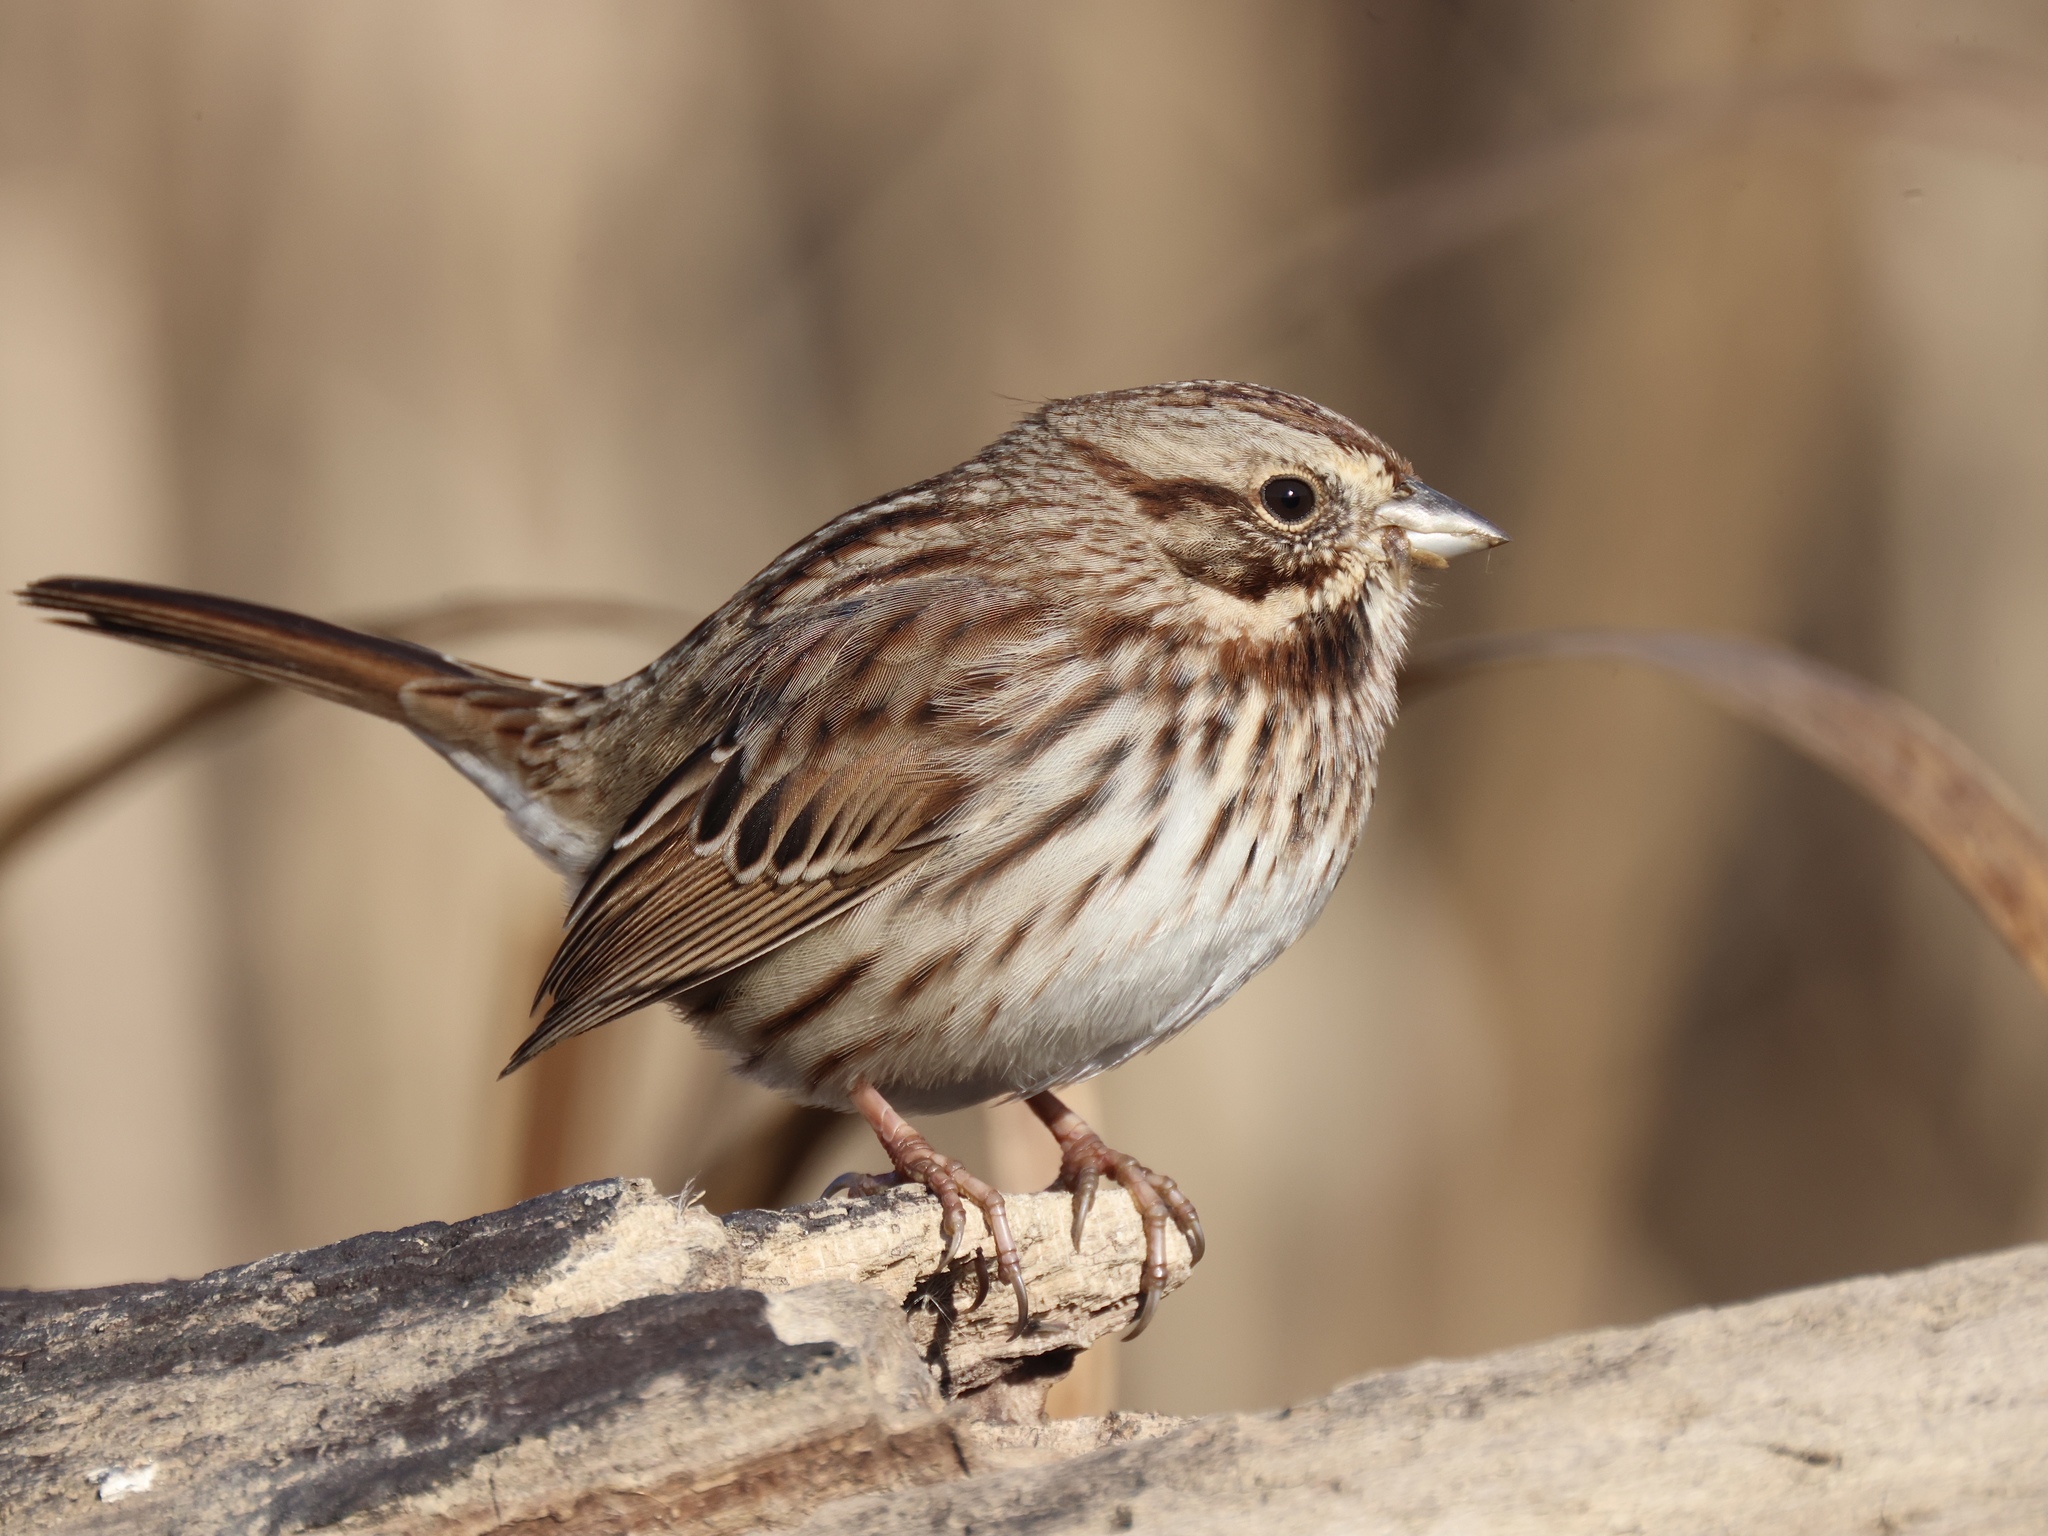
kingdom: Animalia
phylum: Chordata
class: Aves
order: Passeriformes
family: Passerellidae
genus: Melospiza
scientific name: Melospiza melodia
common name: Song sparrow
